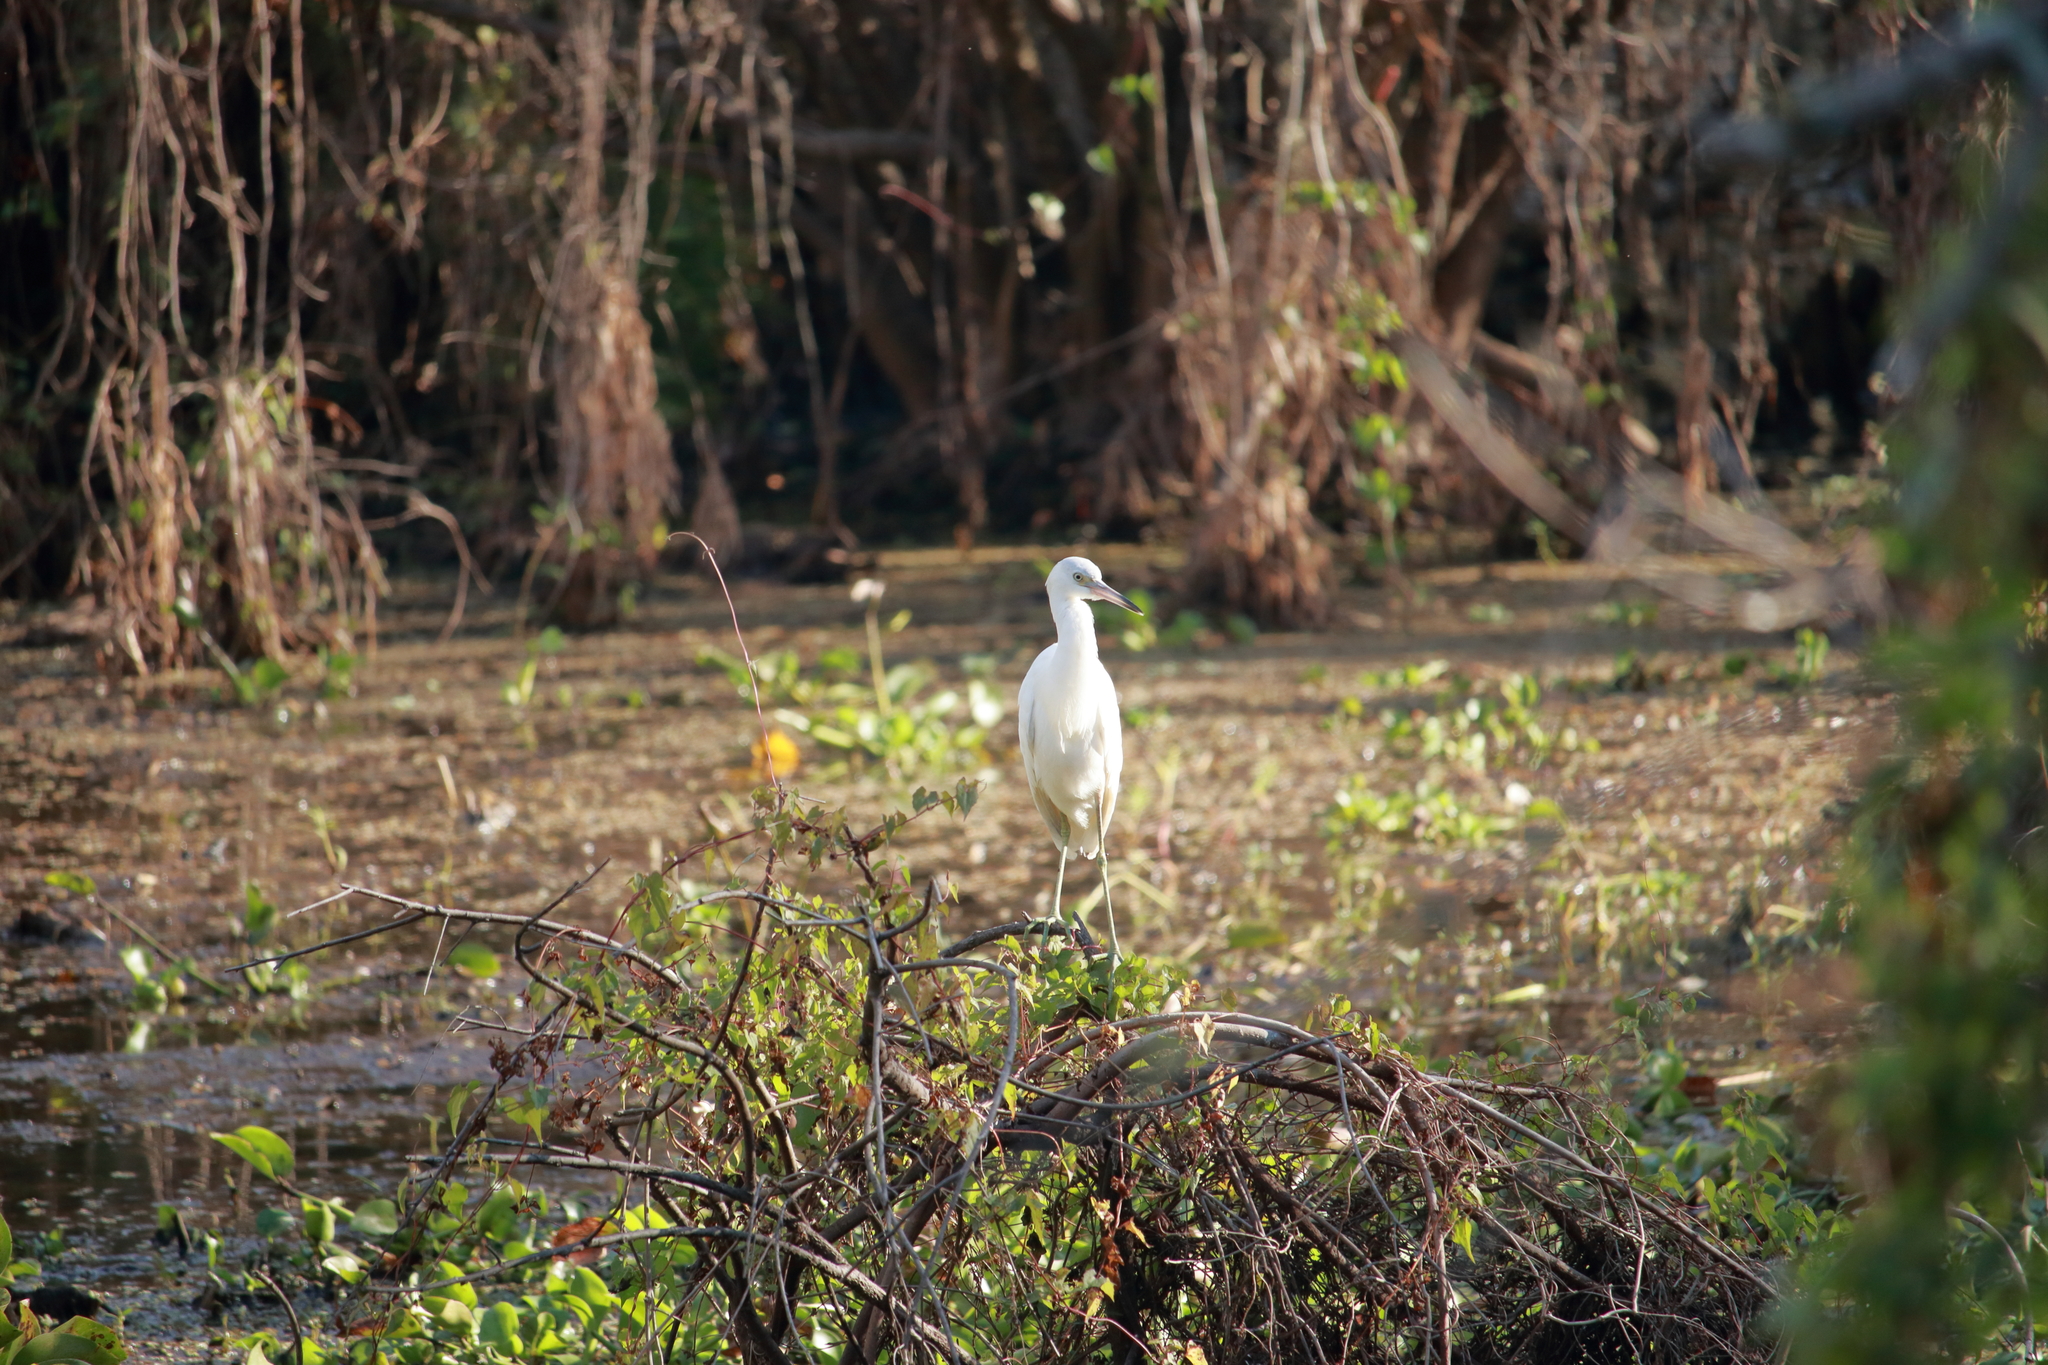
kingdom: Animalia
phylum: Chordata
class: Aves
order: Pelecaniformes
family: Ardeidae
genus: Egretta
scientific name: Egretta caerulea
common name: Little blue heron
